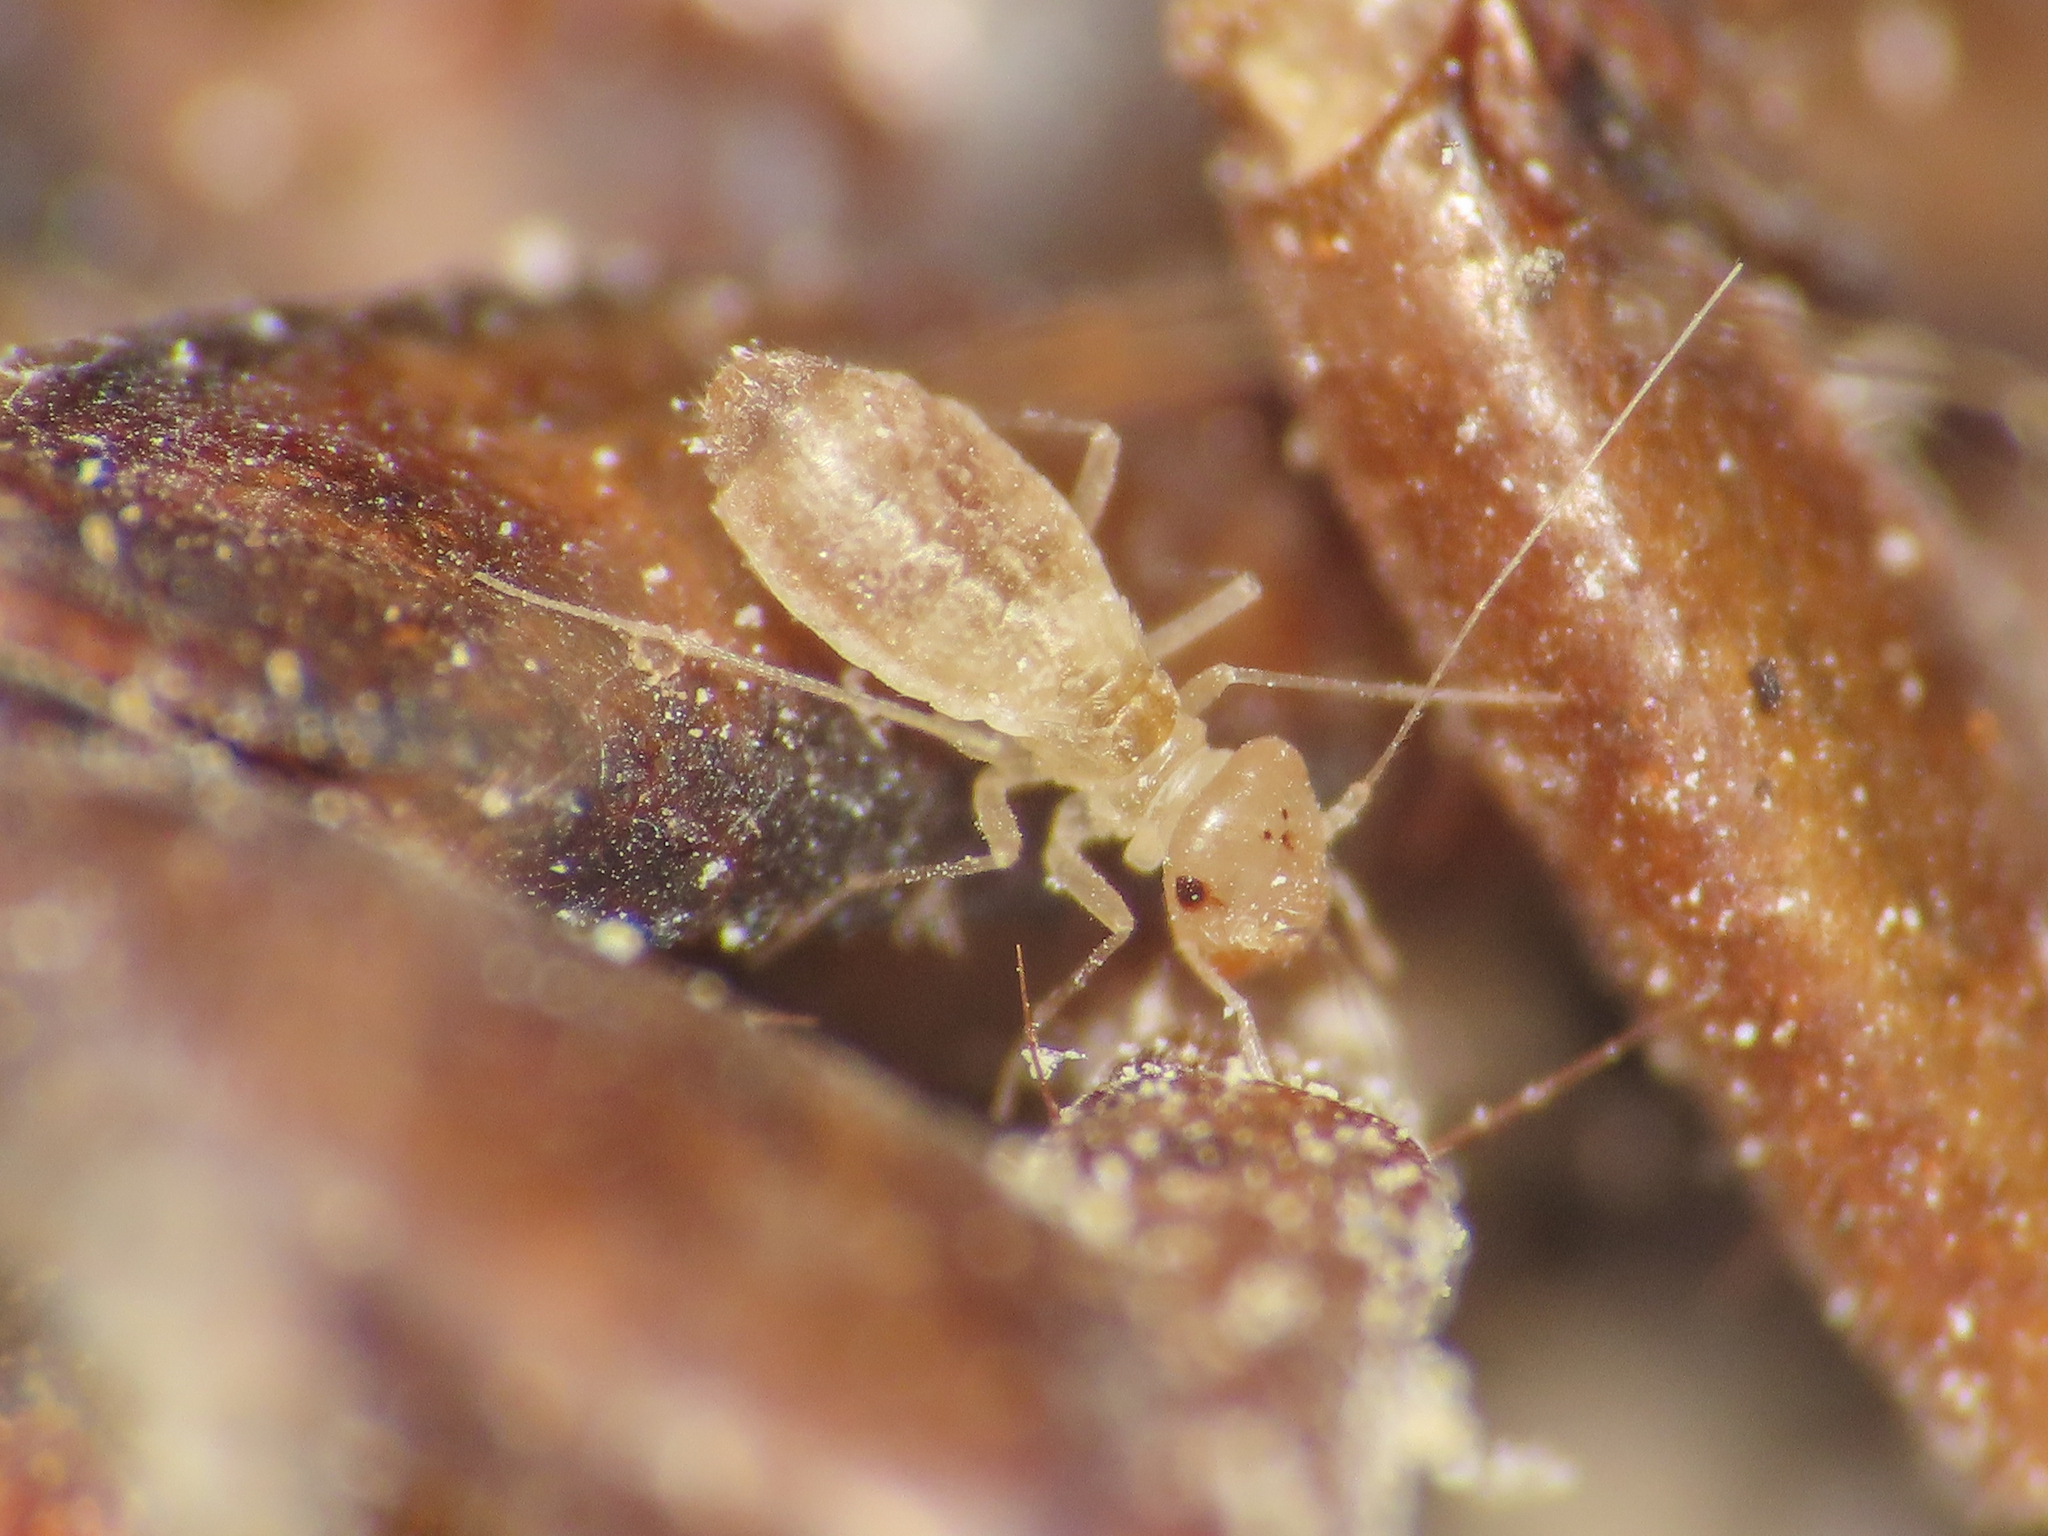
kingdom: Animalia
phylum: Arthropoda
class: Insecta
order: Psocodea
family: Psyllipsocidae
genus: Psyllipsocus
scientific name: Psyllipsocus ramburii
